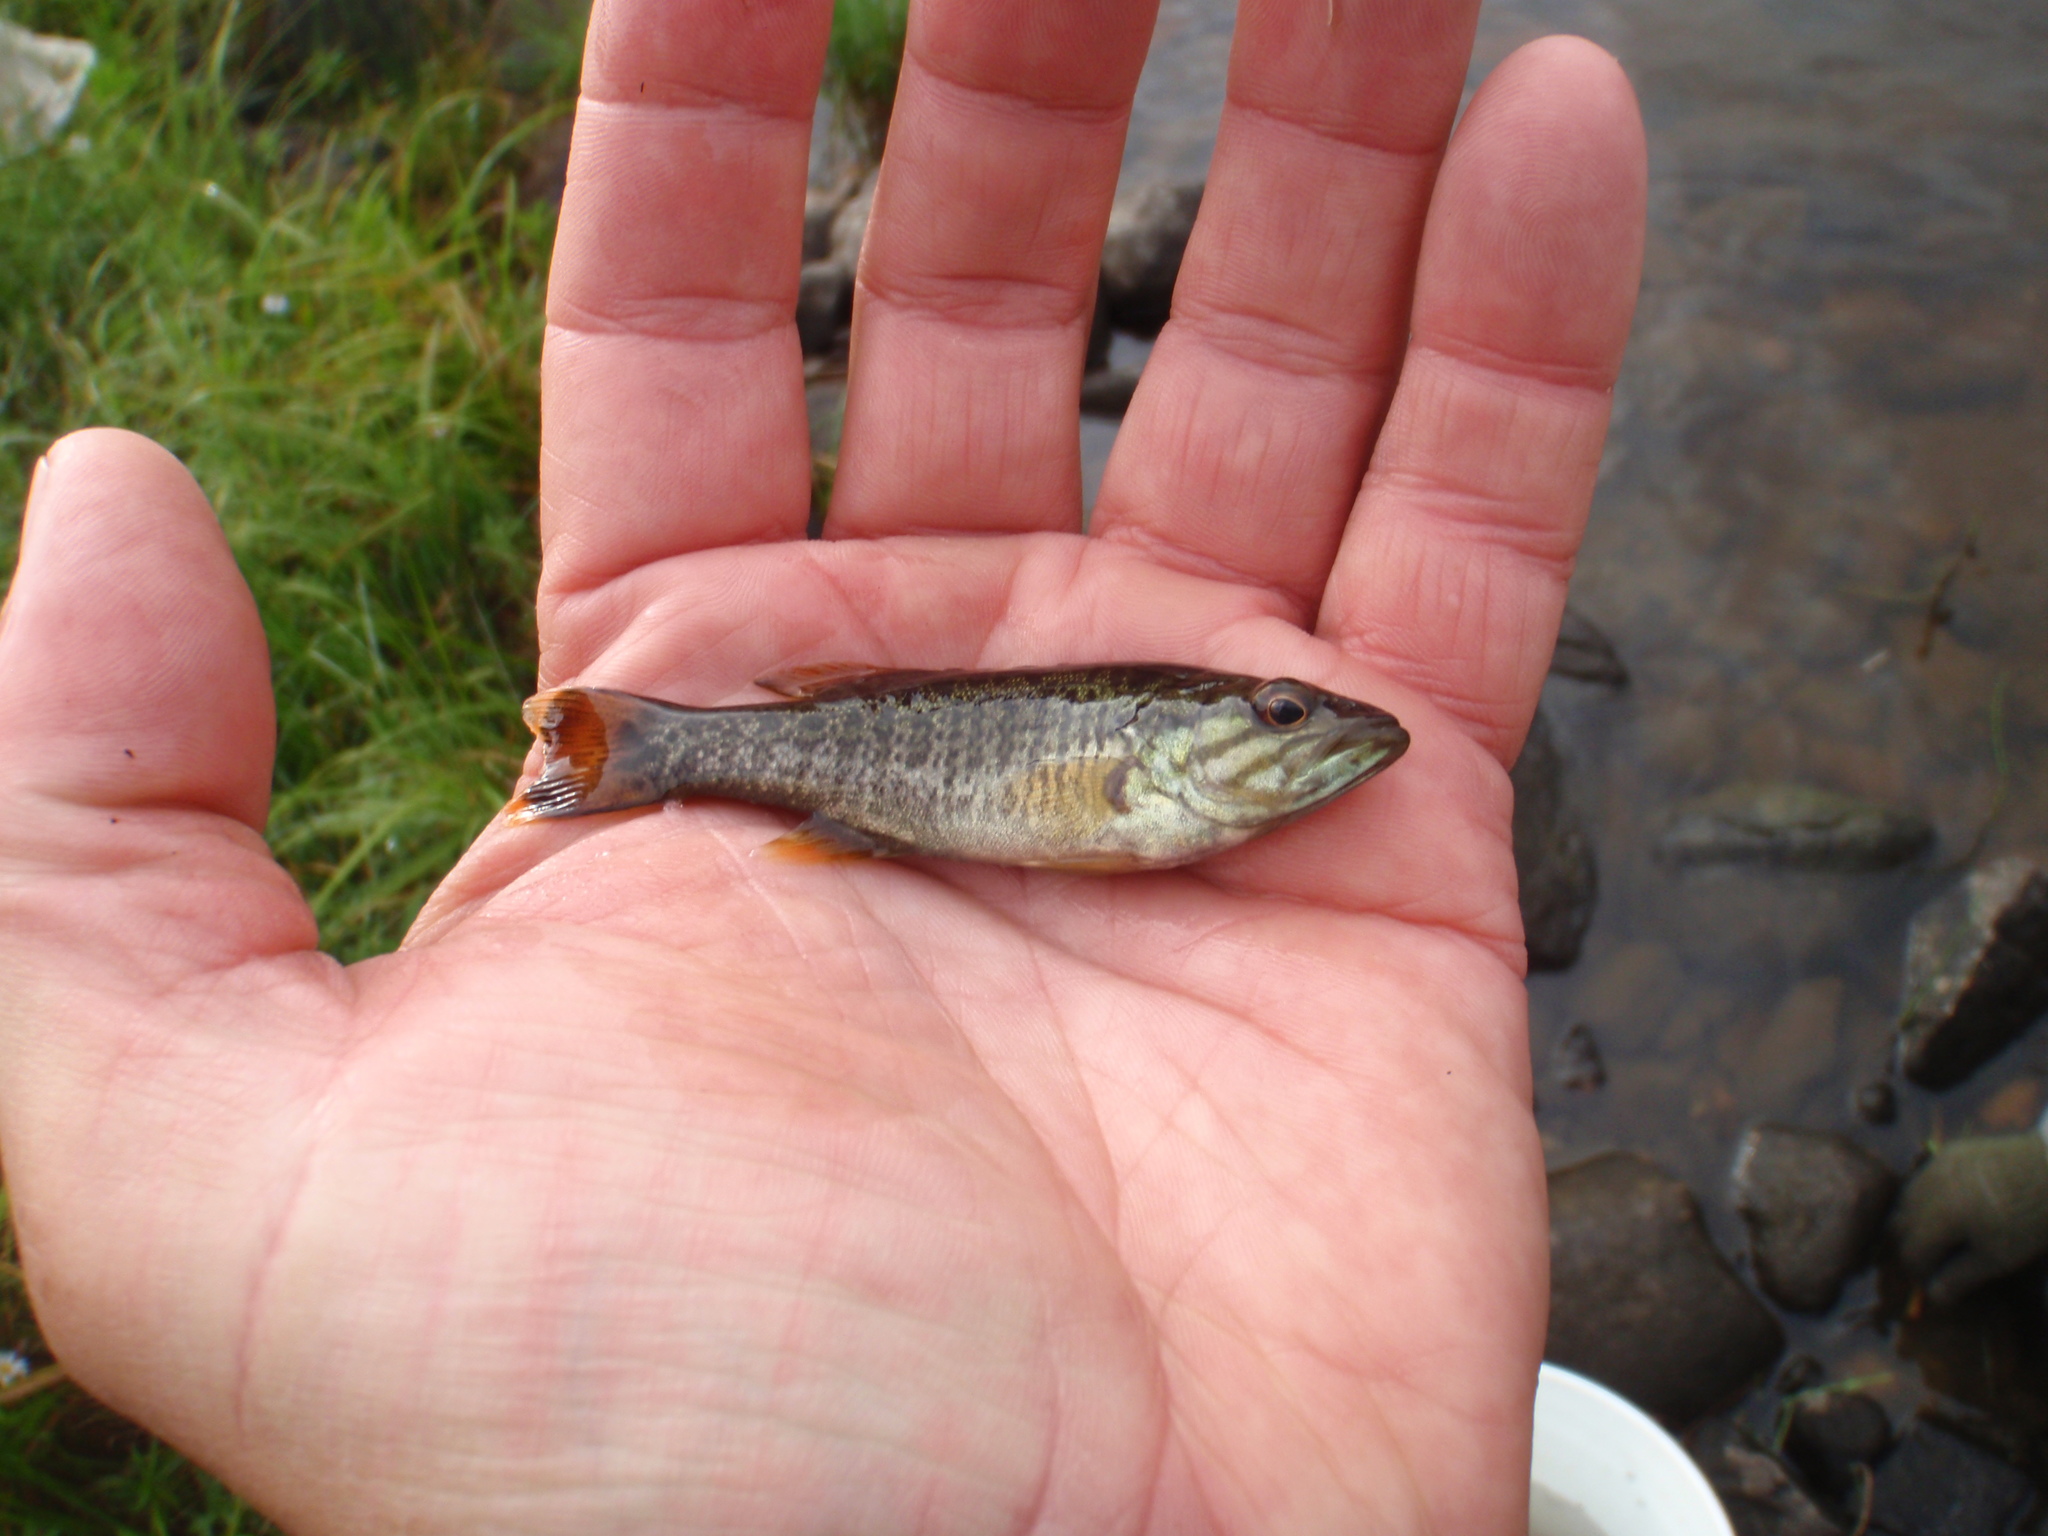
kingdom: Animalia
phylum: Chordata
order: Perciformes
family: Centrarchidae
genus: Micropterus
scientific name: Micropterus dolomieu
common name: Smallmouth bass
